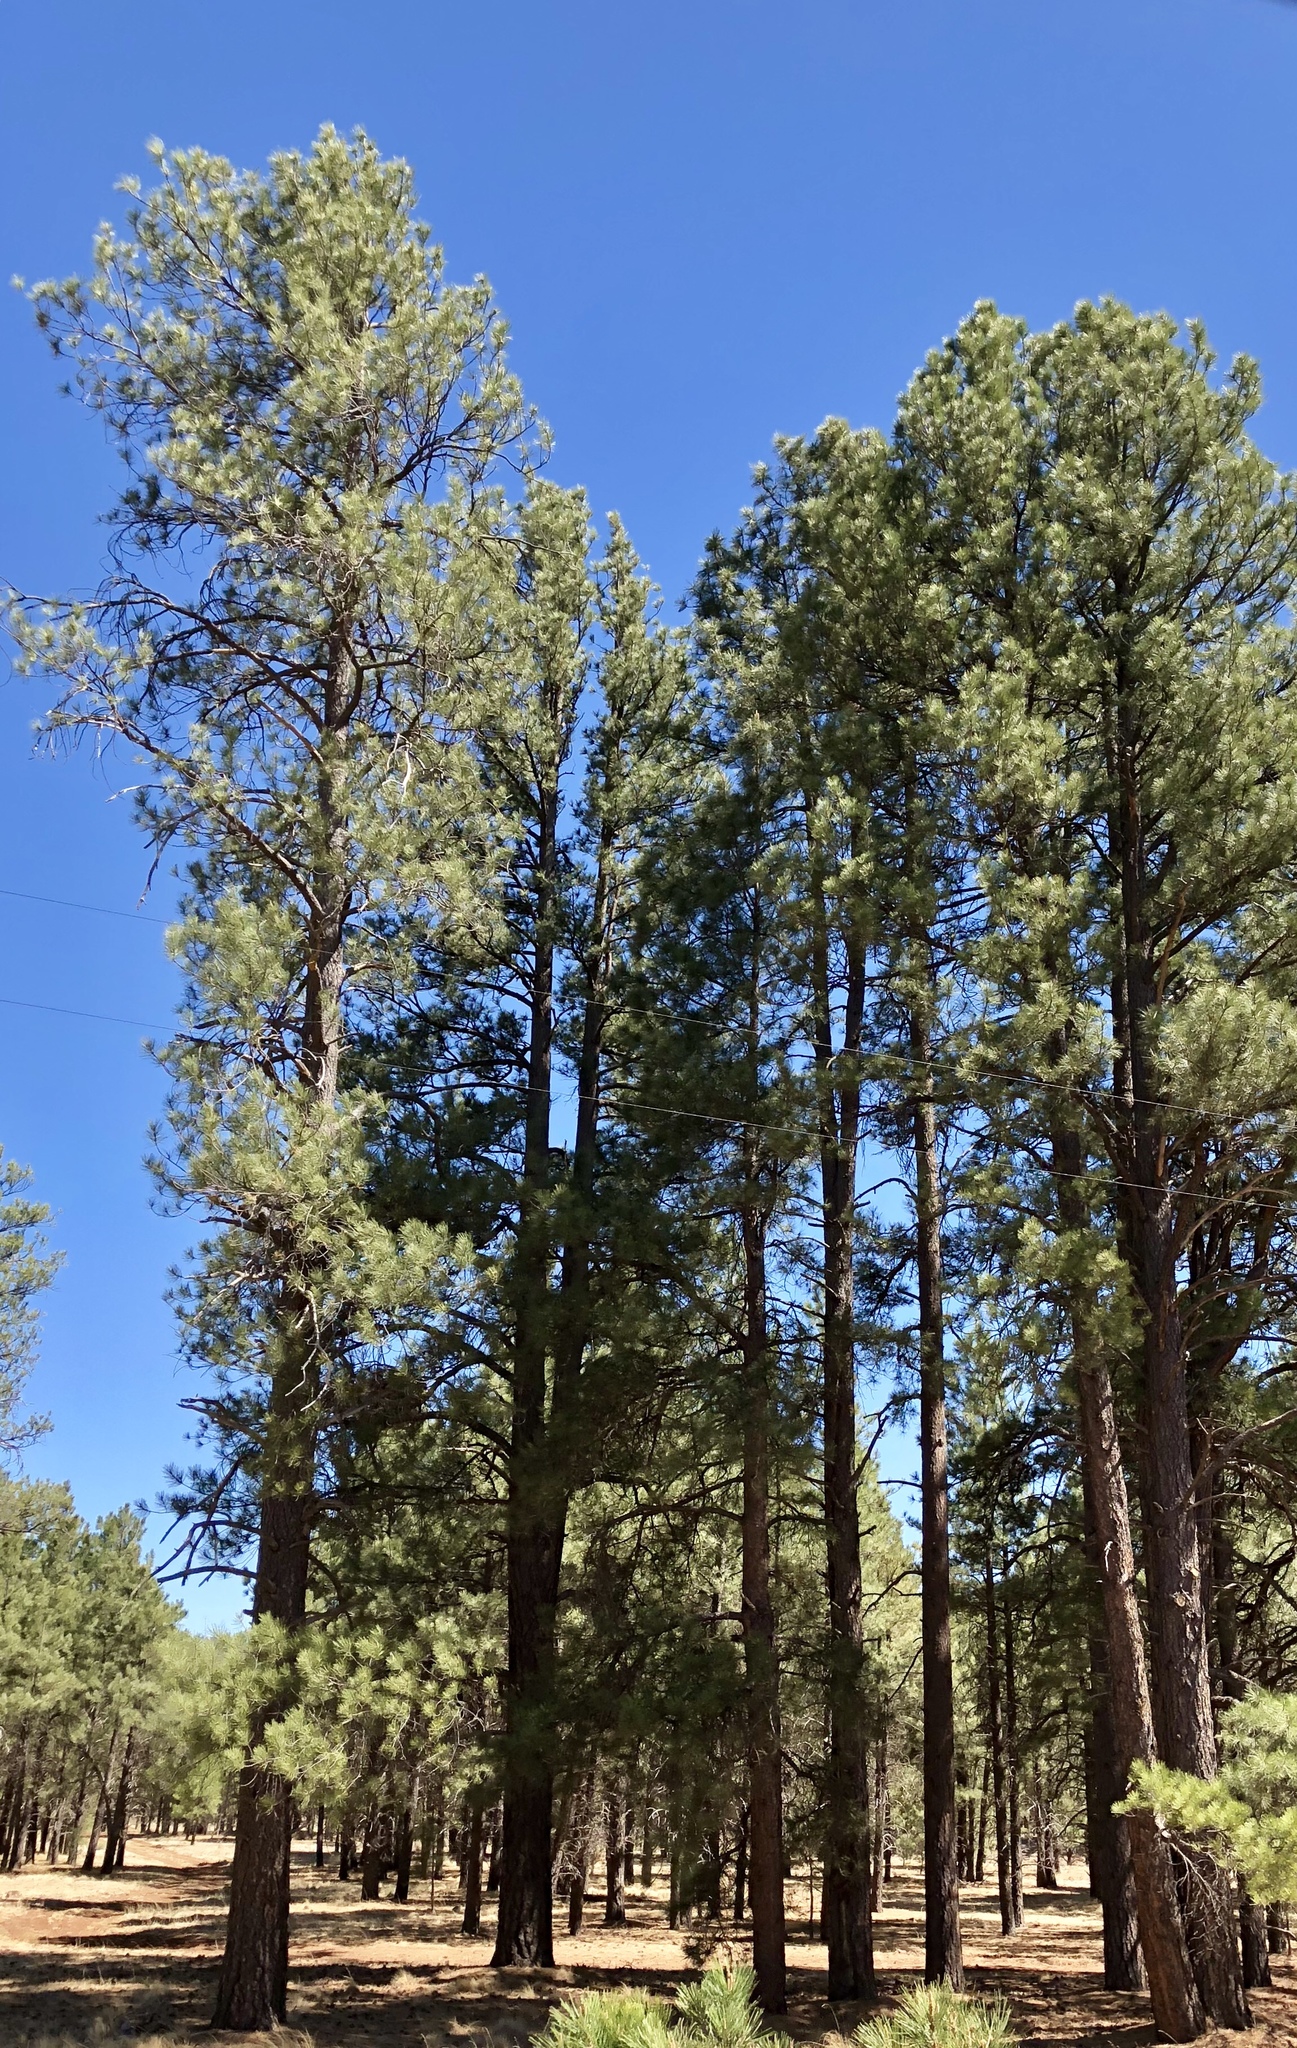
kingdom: Plantae
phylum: Tracheophyta
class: Pinopsida
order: Pinales
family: Pinaceae
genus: Pinus
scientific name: Pinus ponderosa
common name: Western yellow-pine
